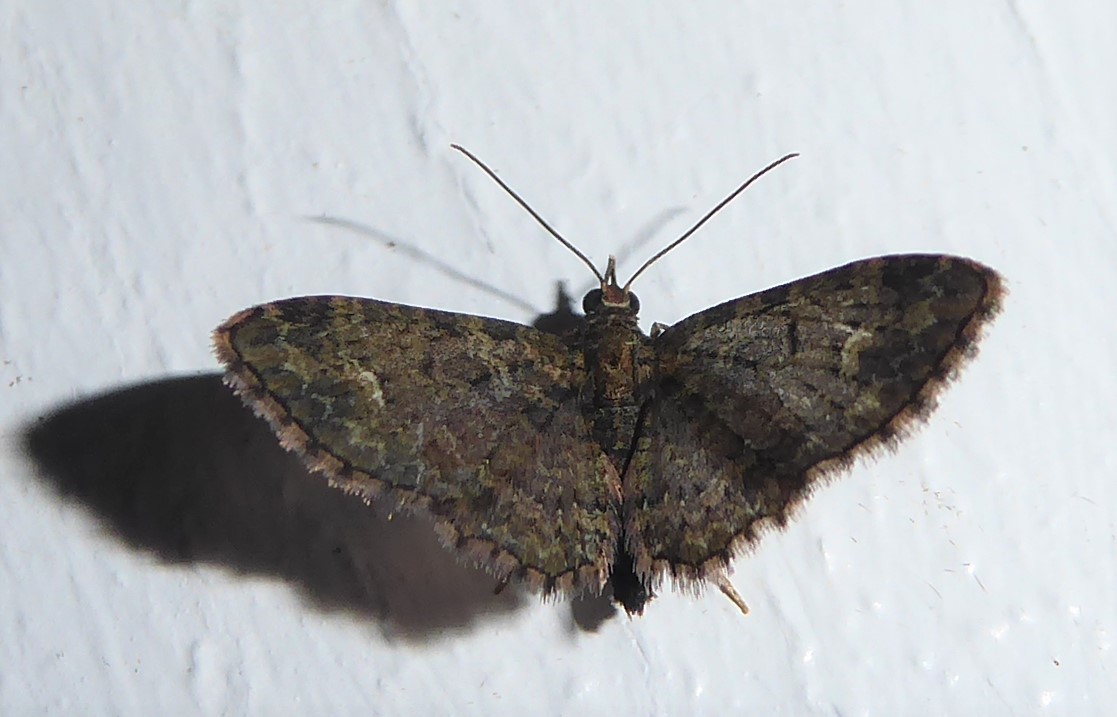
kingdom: Animalia
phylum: Arthropoda
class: Insecta
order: Lepidoptera
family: Geometridae
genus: Pasiphilodes
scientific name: Pasiphilodes testulata
